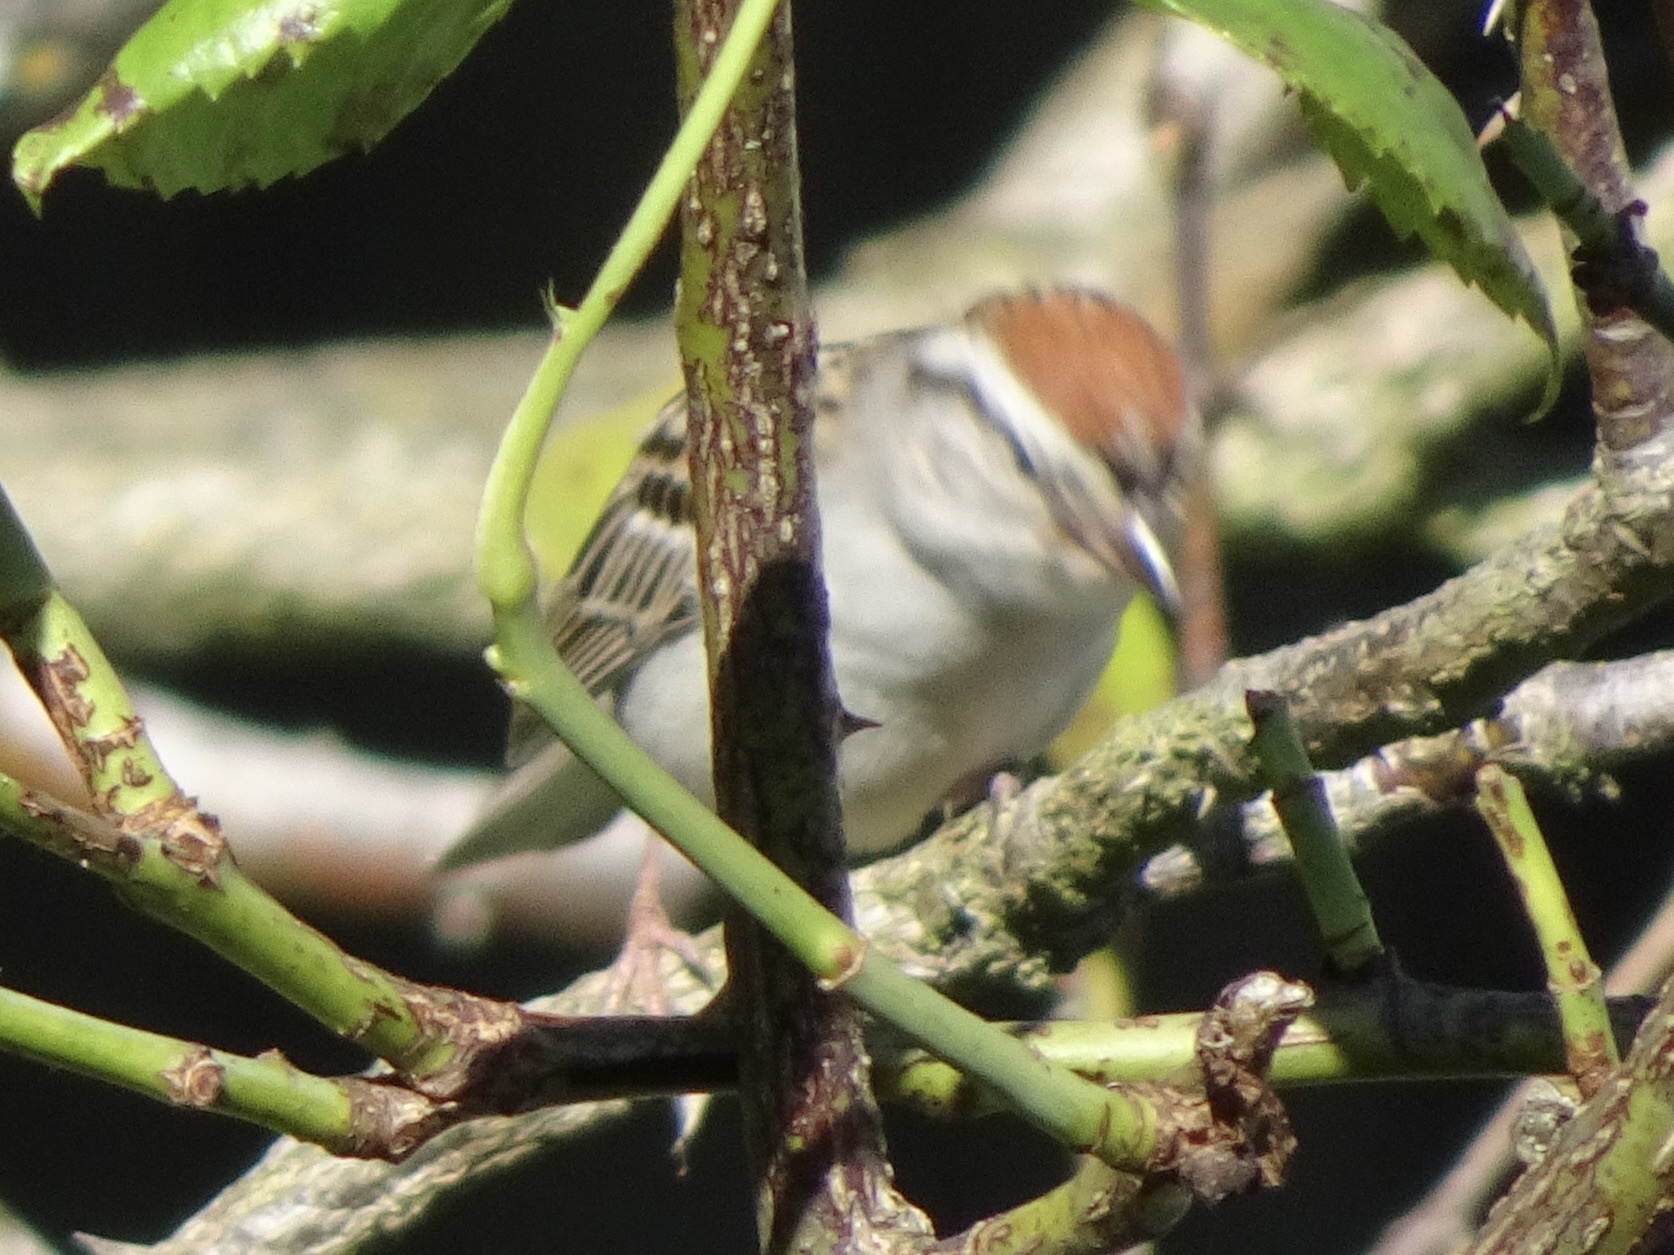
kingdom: Animalia
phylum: Chordata
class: Aves
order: Passeriformes
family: Passerellidae
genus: Spizella
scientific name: Spizella passerina
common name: Chipping sparrow
